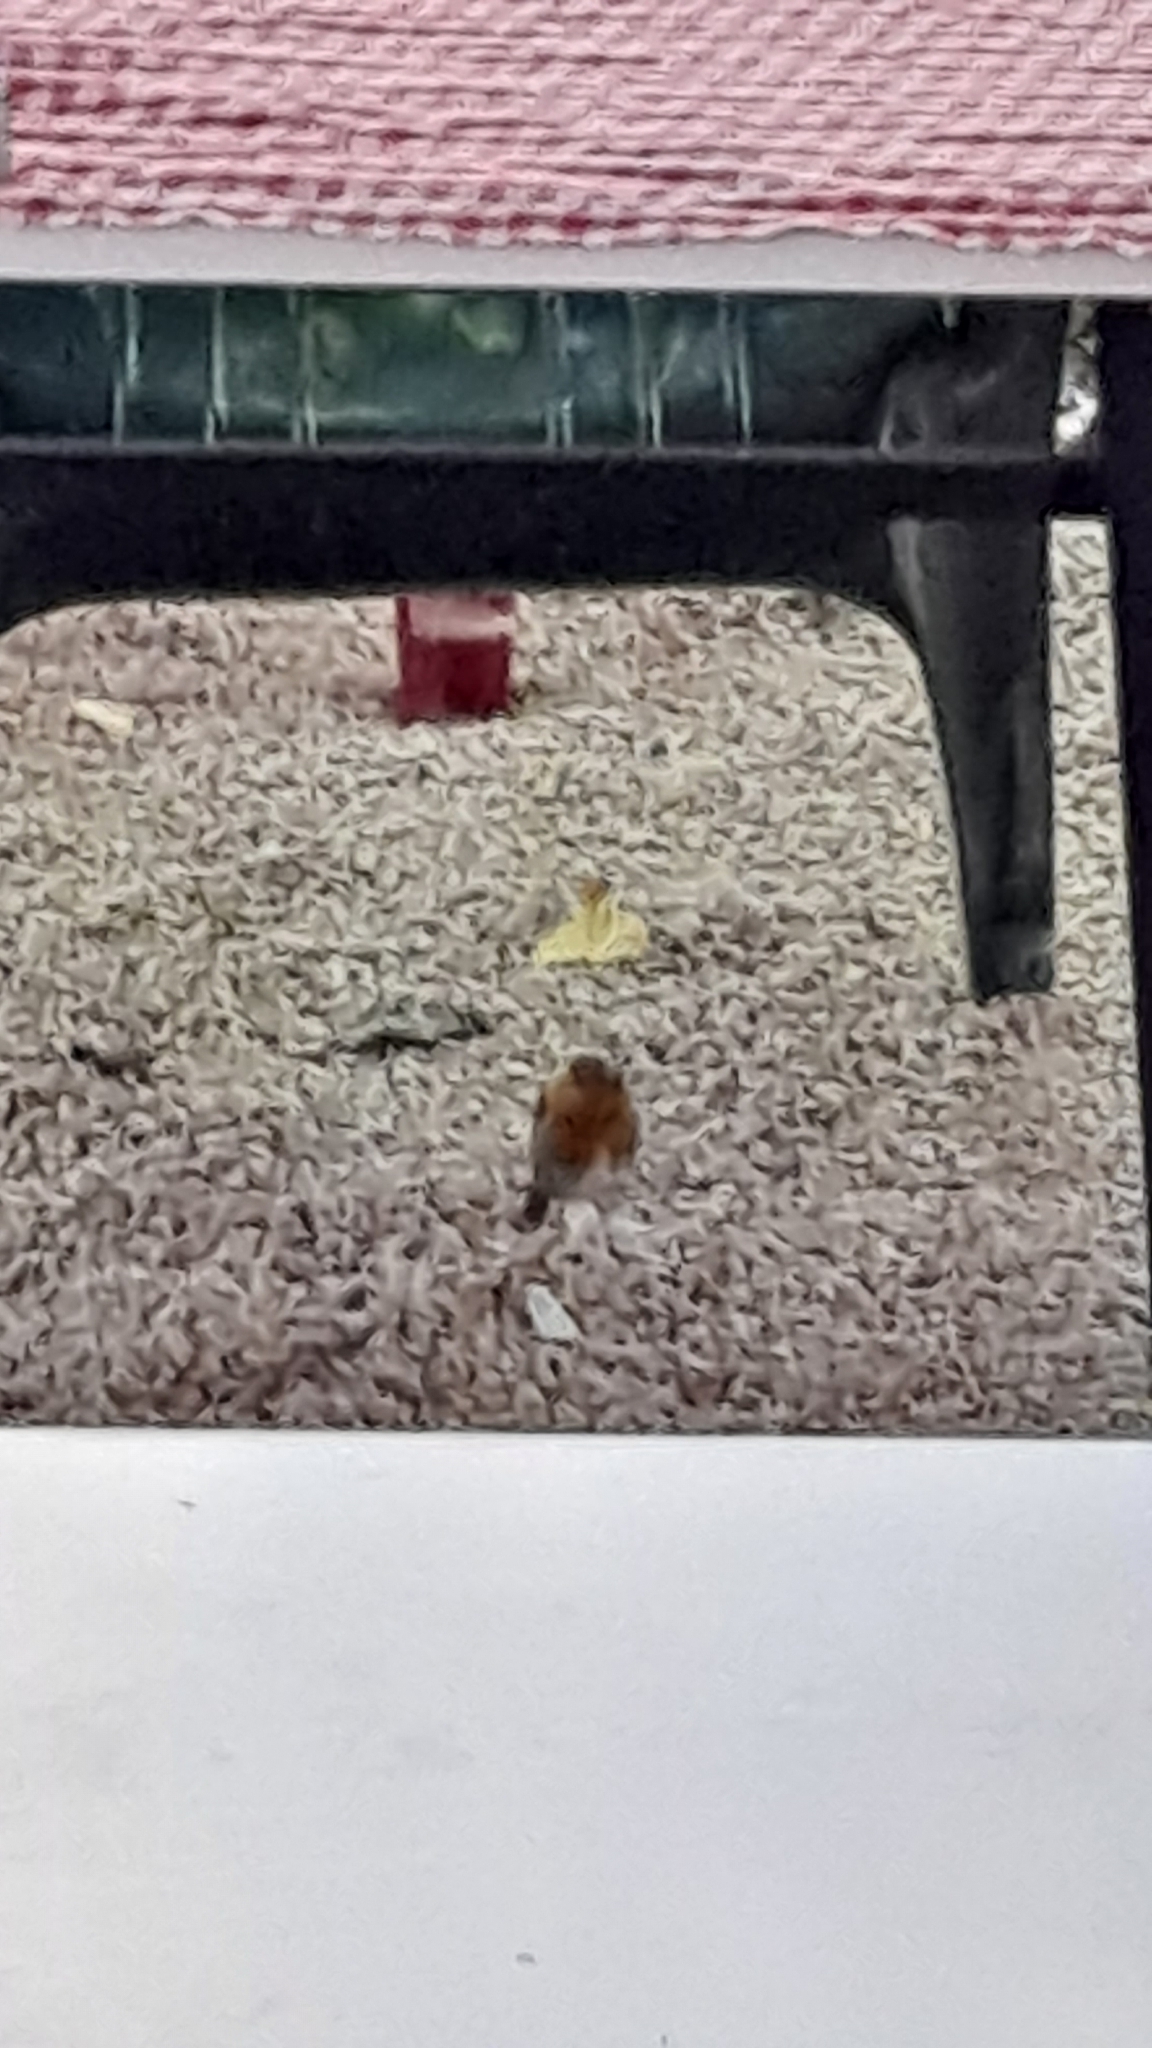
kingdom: Animalia
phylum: Chordata
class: Aves
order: Passeriformes
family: Muscicapidae
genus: Erithacus
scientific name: Erithacus rubecula
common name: European robin
